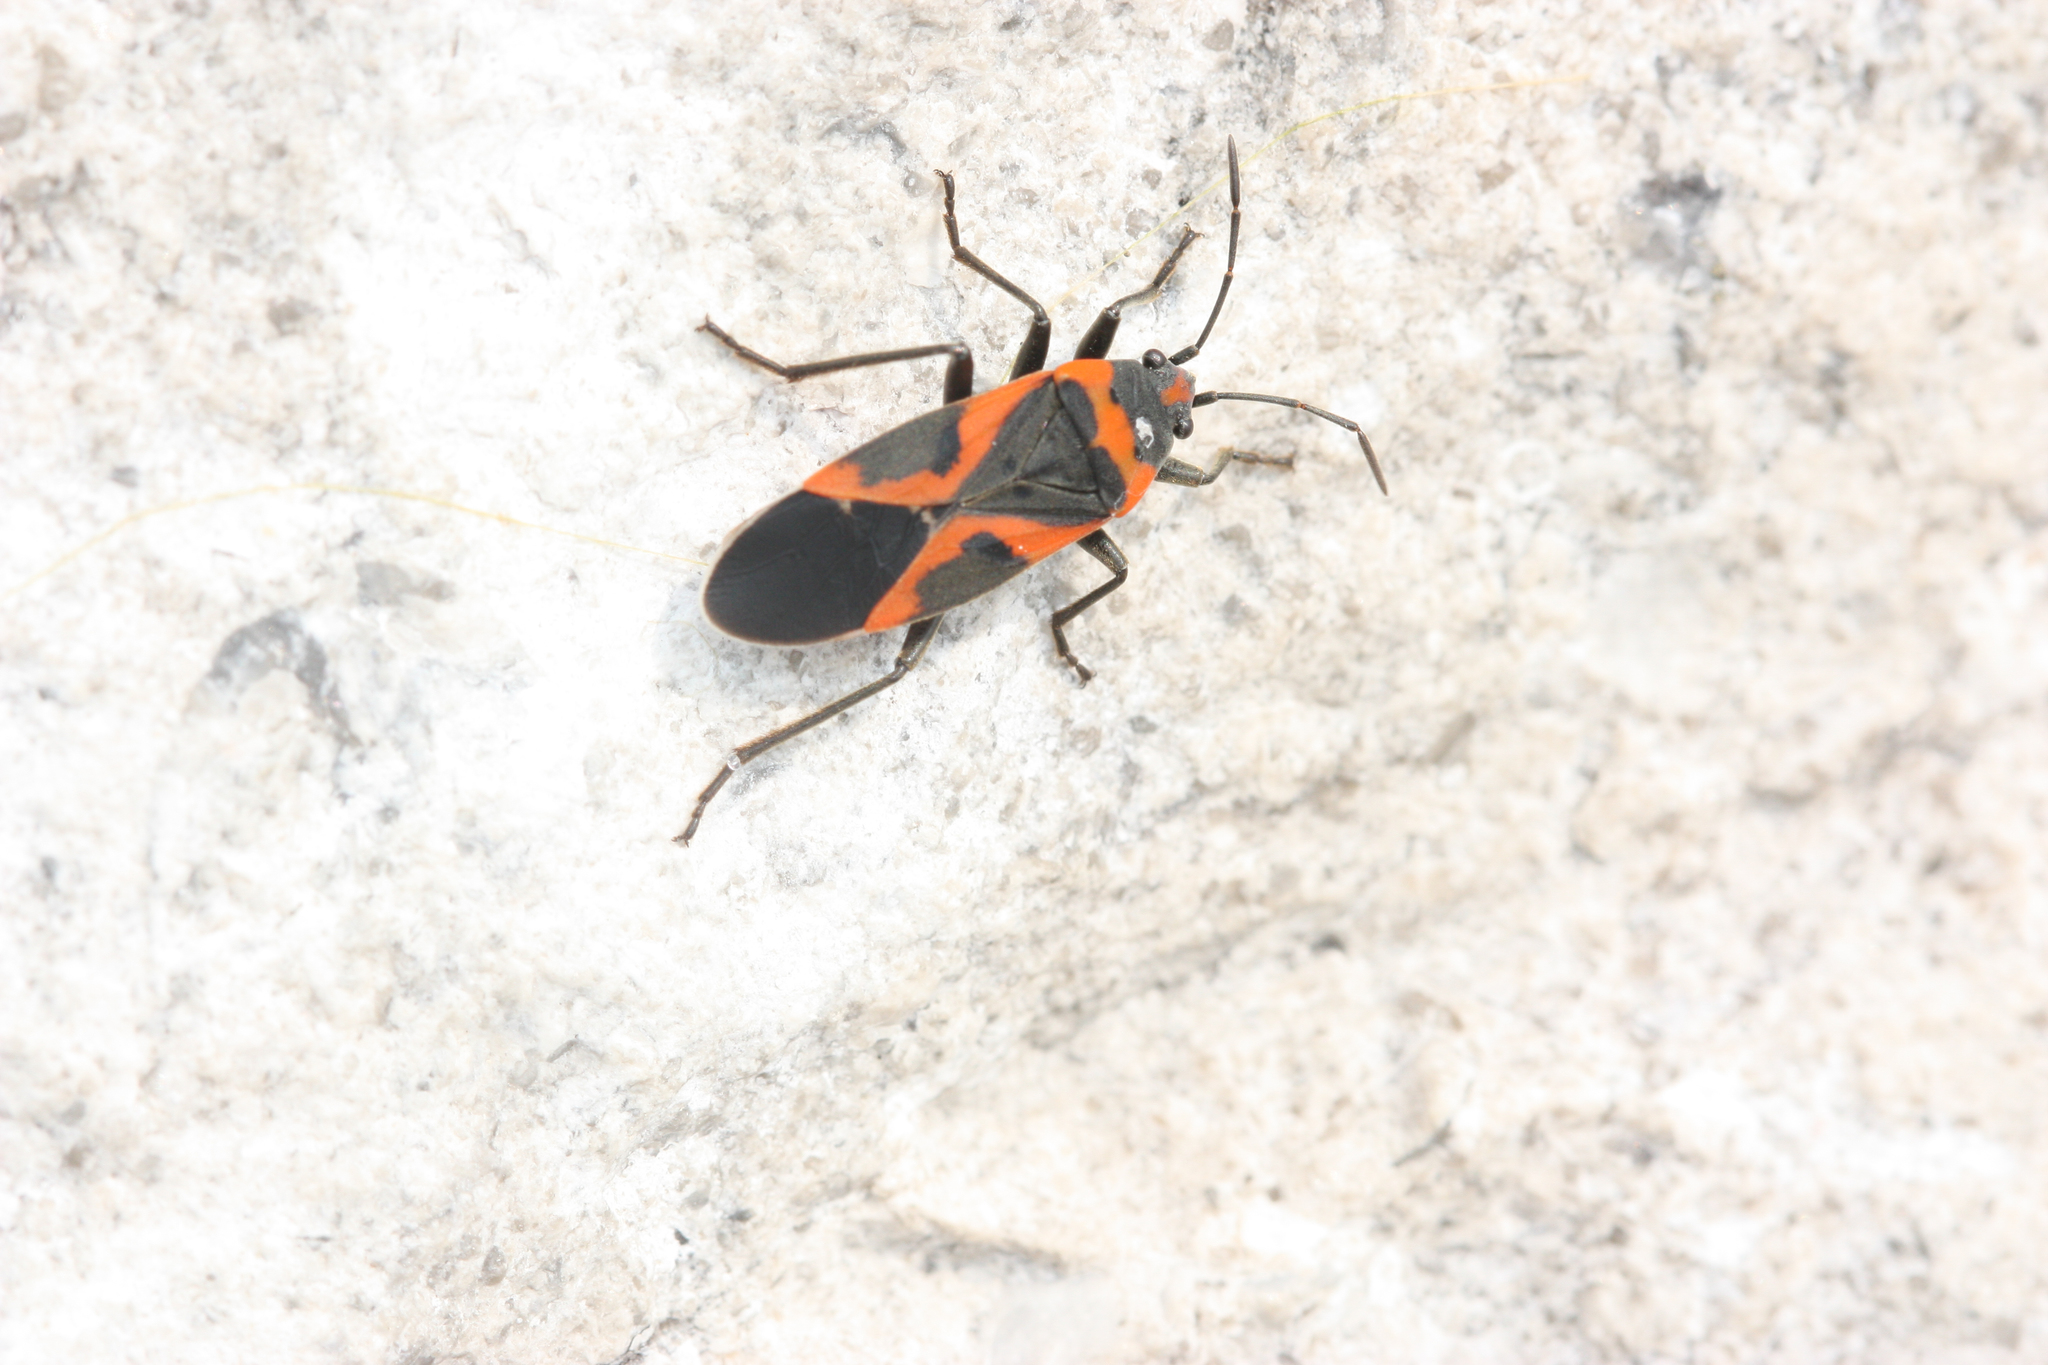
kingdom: Animalia
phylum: Arthropoda
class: Insecta
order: Hemiptera
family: Lygaeidae
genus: Lygaeus
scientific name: Lygaeus kalmii
